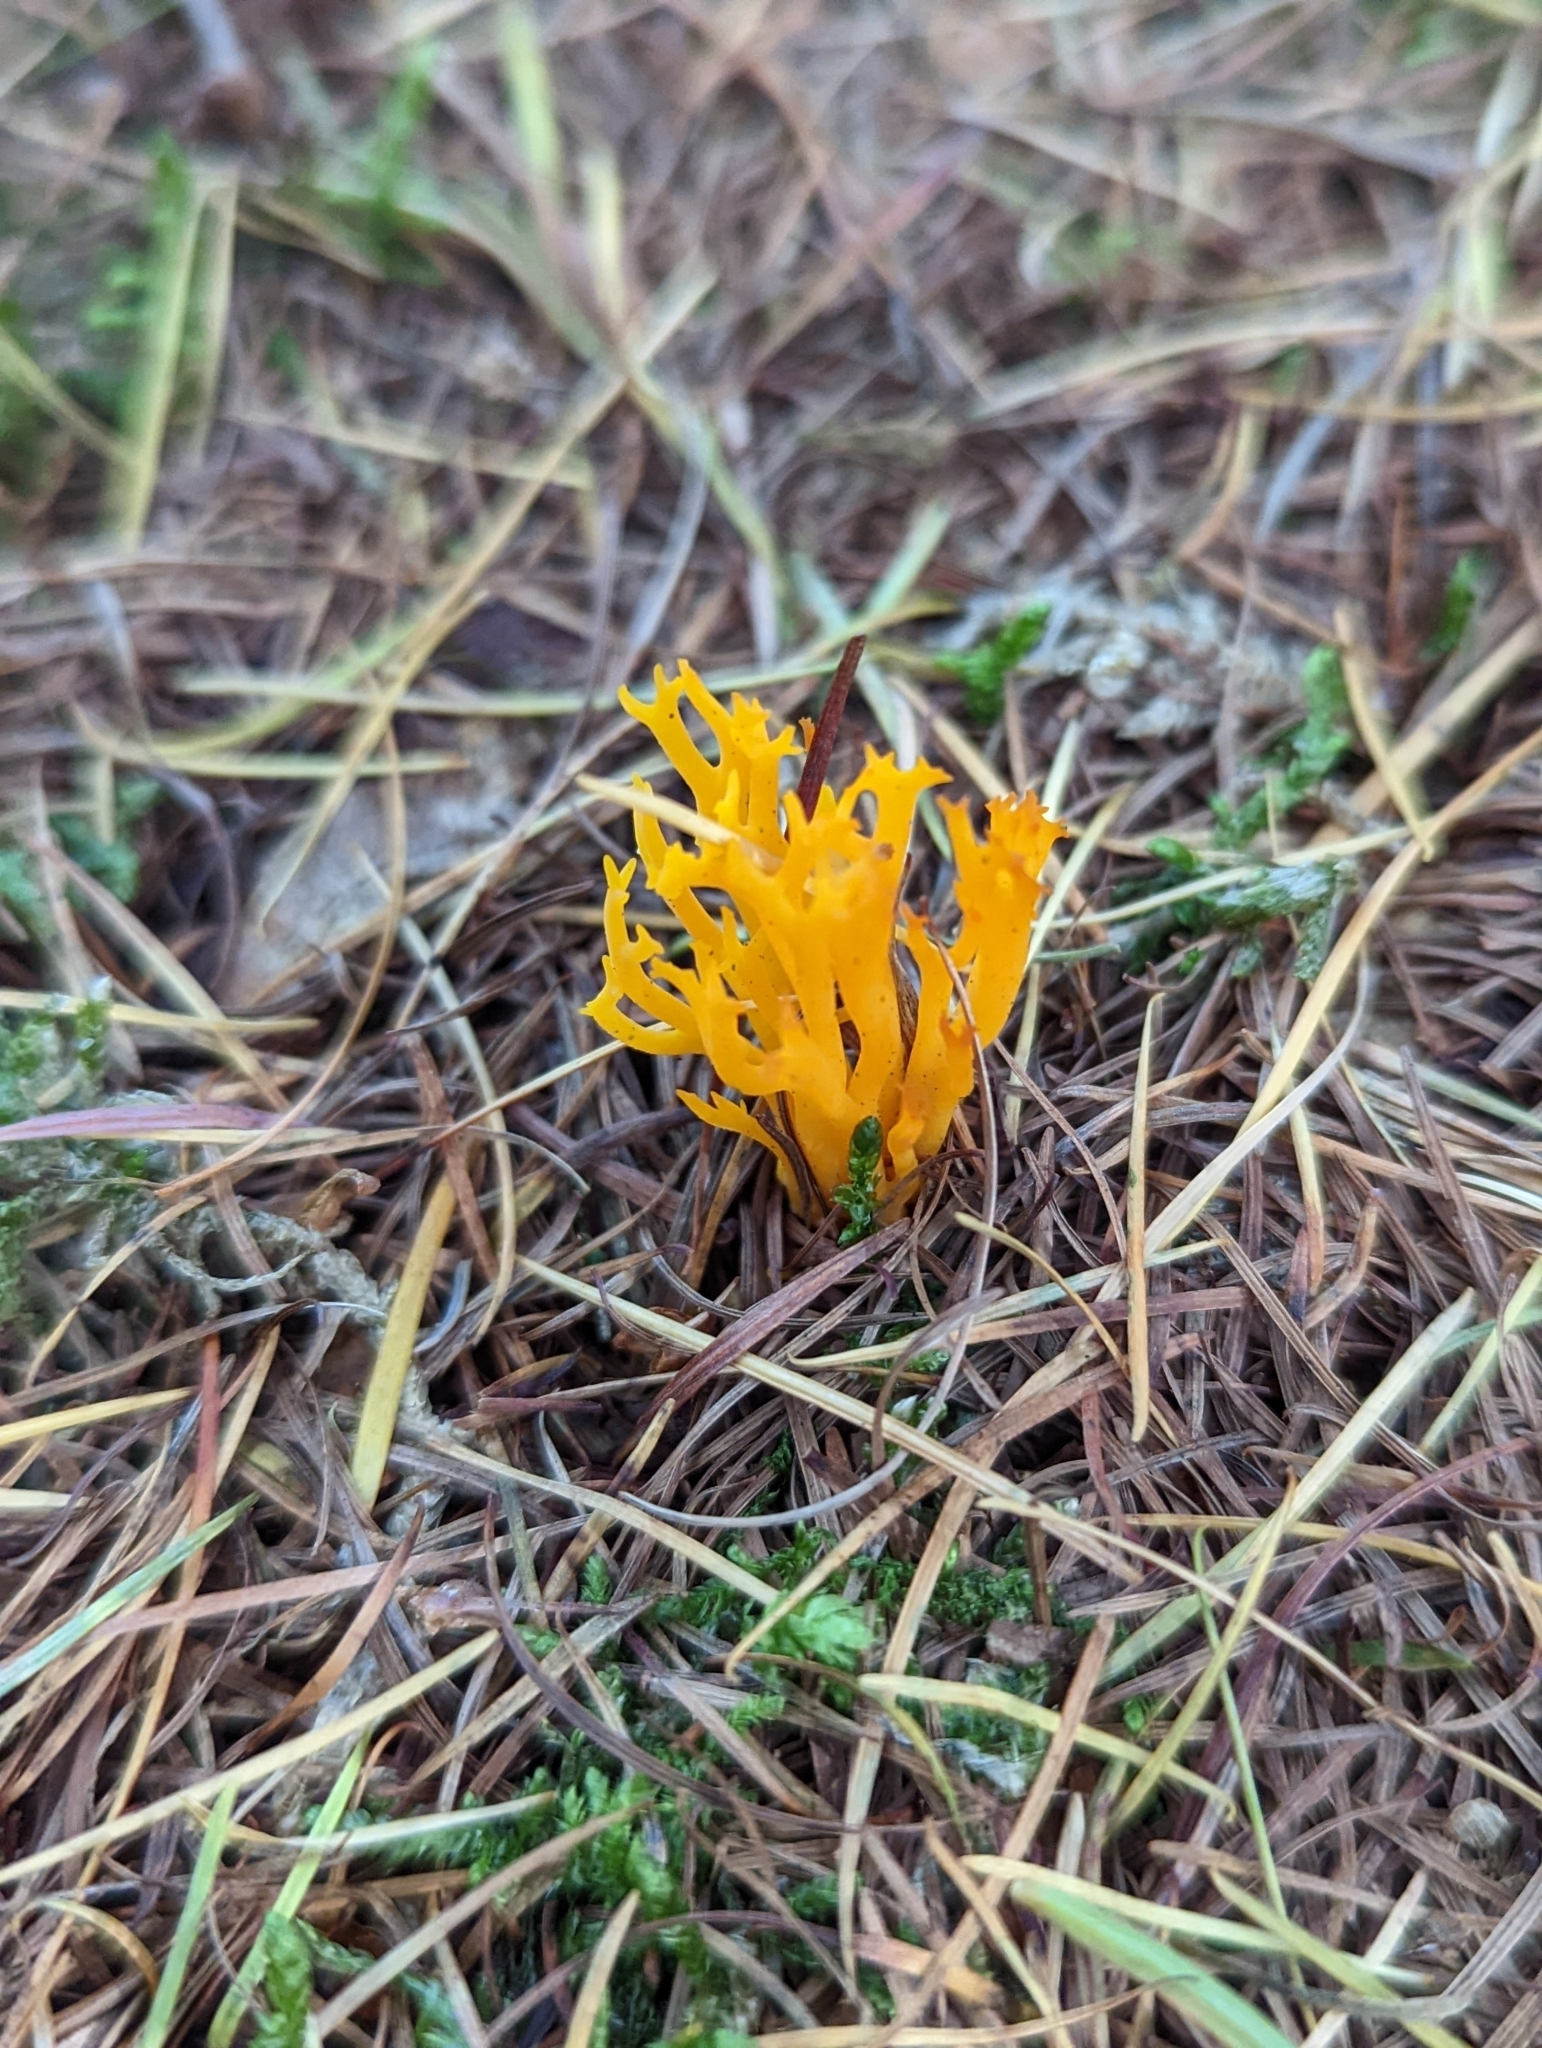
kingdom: Fungi
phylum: Basidiomycota
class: Dacrymycetes
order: Dacrymycetales
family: Dacrymycetaceae
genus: Calocera
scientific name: Calocera viscosa
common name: Yellow stagshorn
